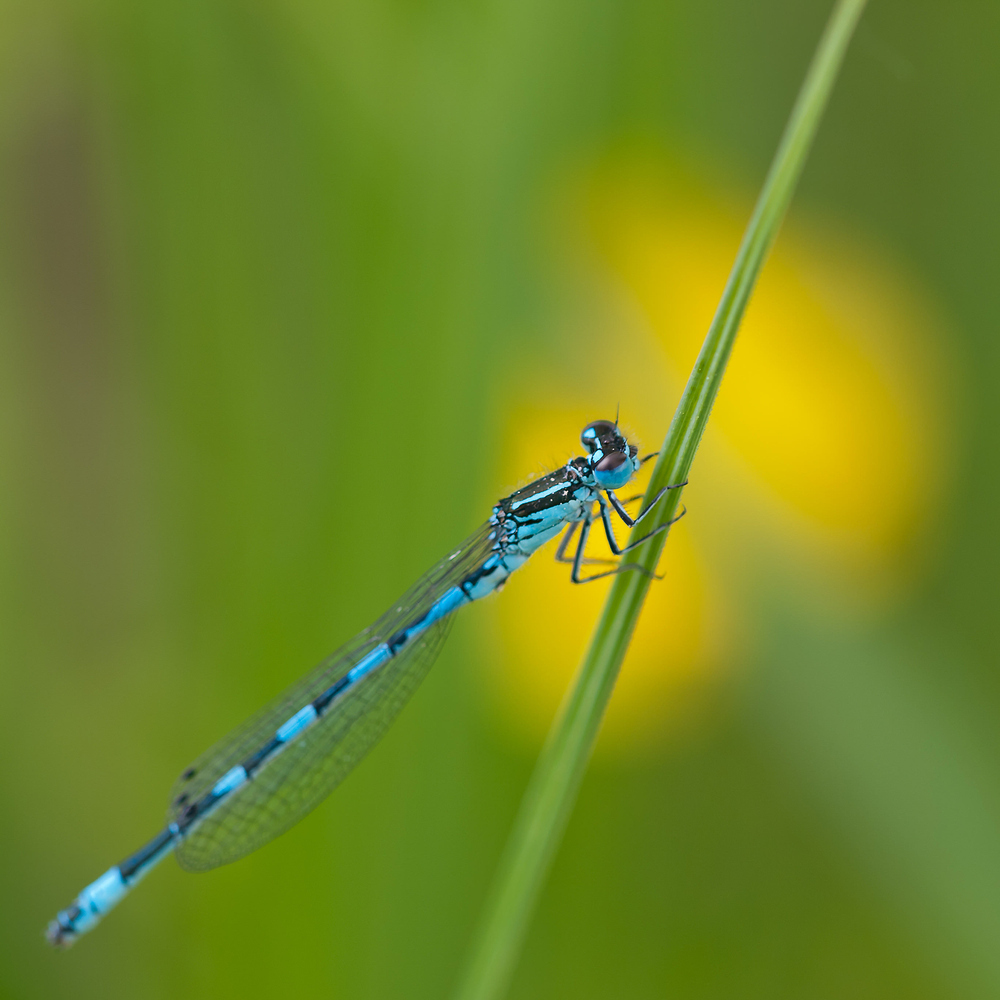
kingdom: Animalia
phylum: Arthropoda
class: Insecta
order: Odonata
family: Coenagrionidae
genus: Coenagrion
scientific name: Coenagrion mercuriale
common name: Southern damselfly
